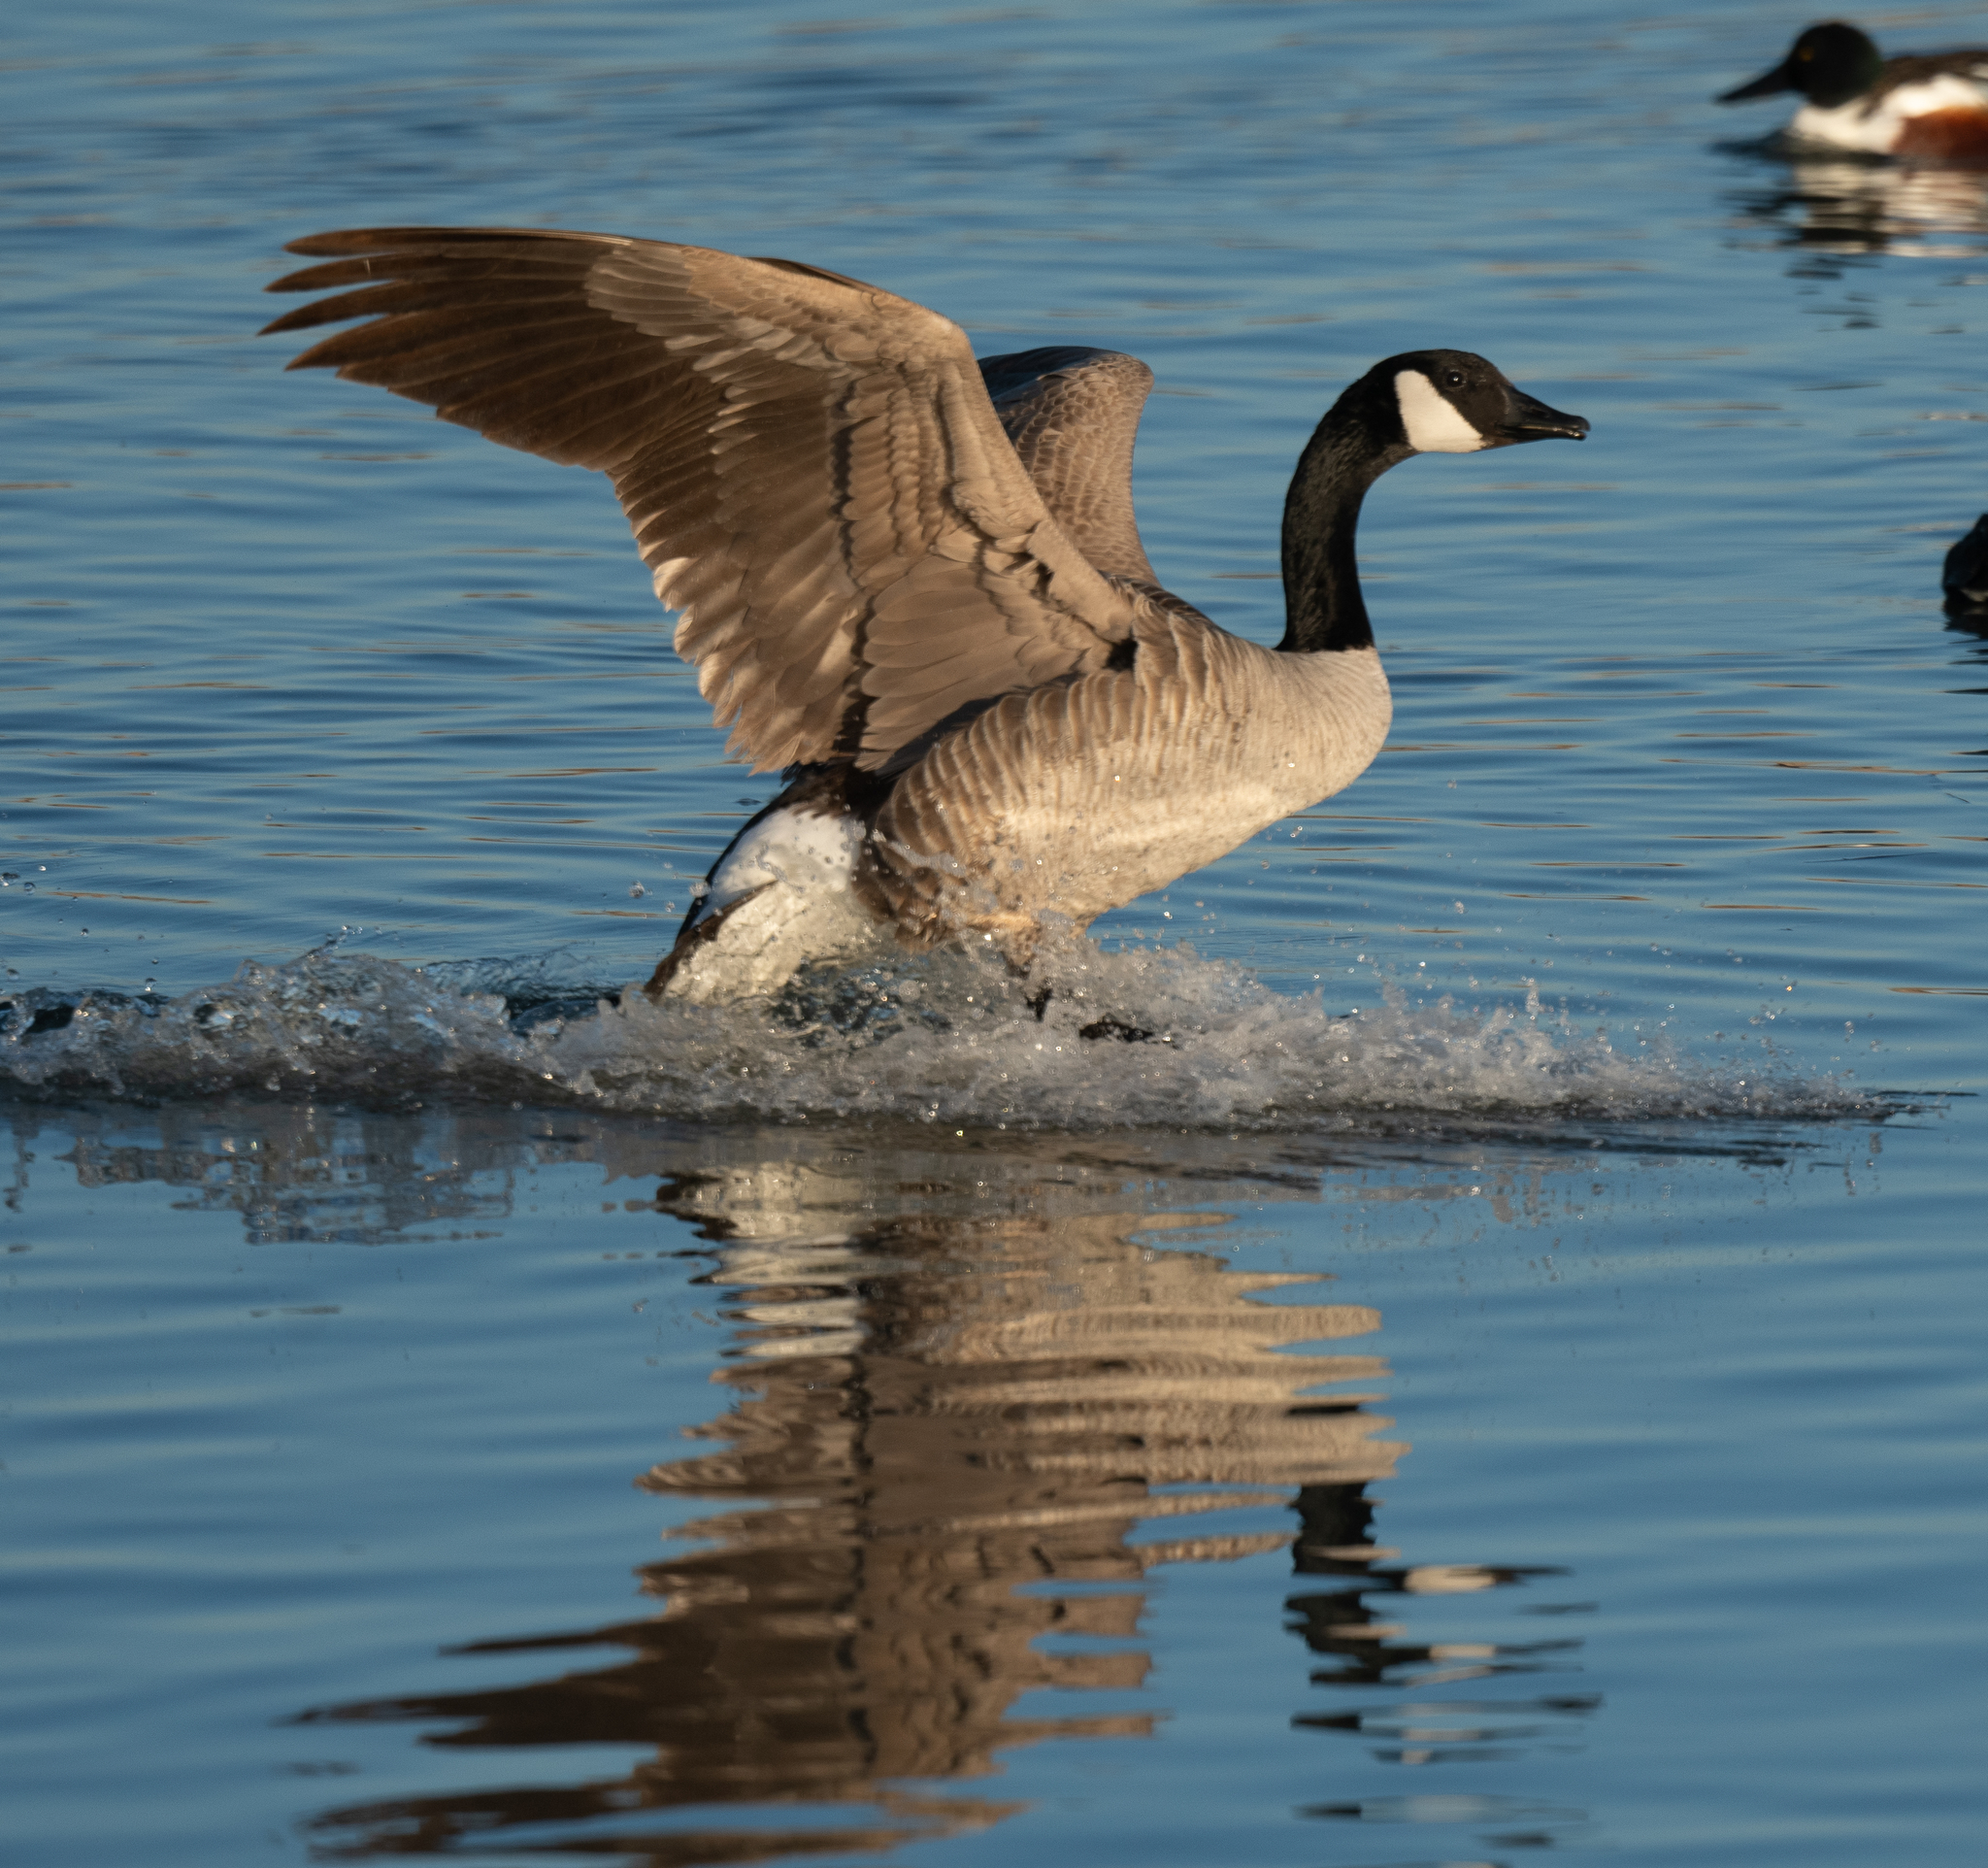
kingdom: Animalia
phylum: Chordata
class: Aves
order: Anseriformes
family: Anatidae
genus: Branta
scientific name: Branta canadensis
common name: Canada goose
